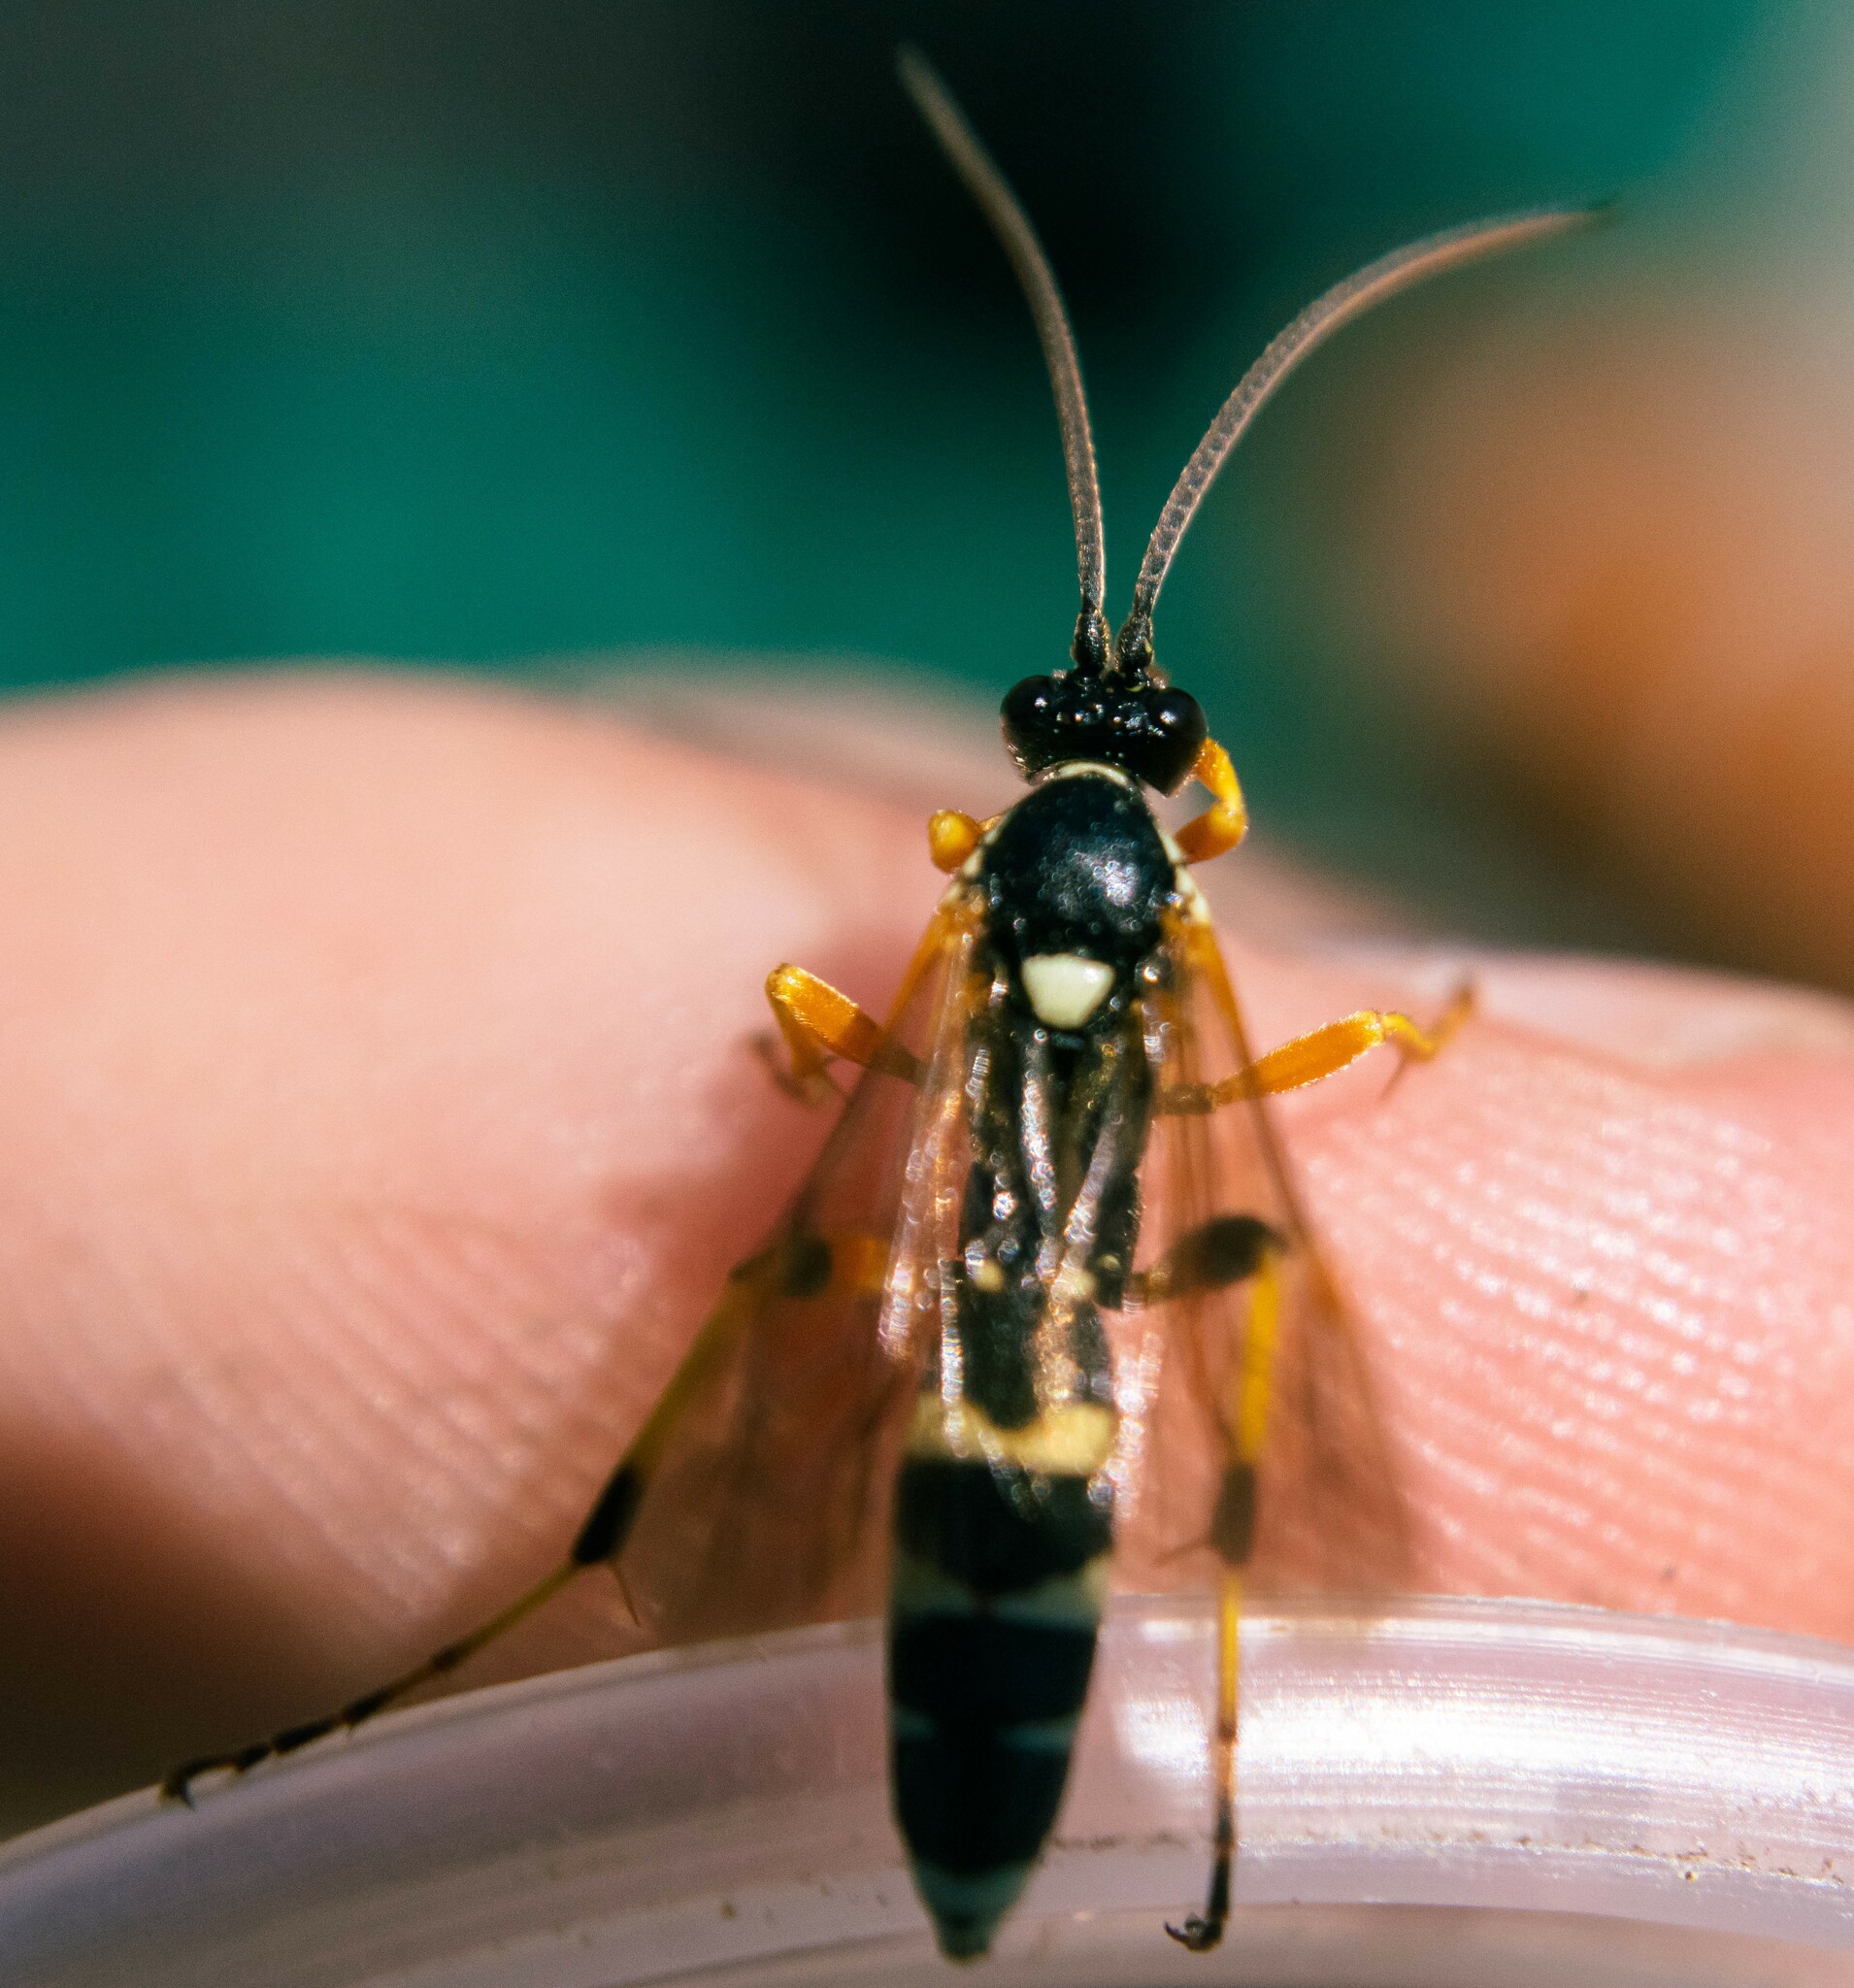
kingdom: Animalia
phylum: Arthropoda
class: Insecta
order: Hymenoptera
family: Ichneumonidae
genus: Ichneumon
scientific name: Ichneumon sarcitorius
